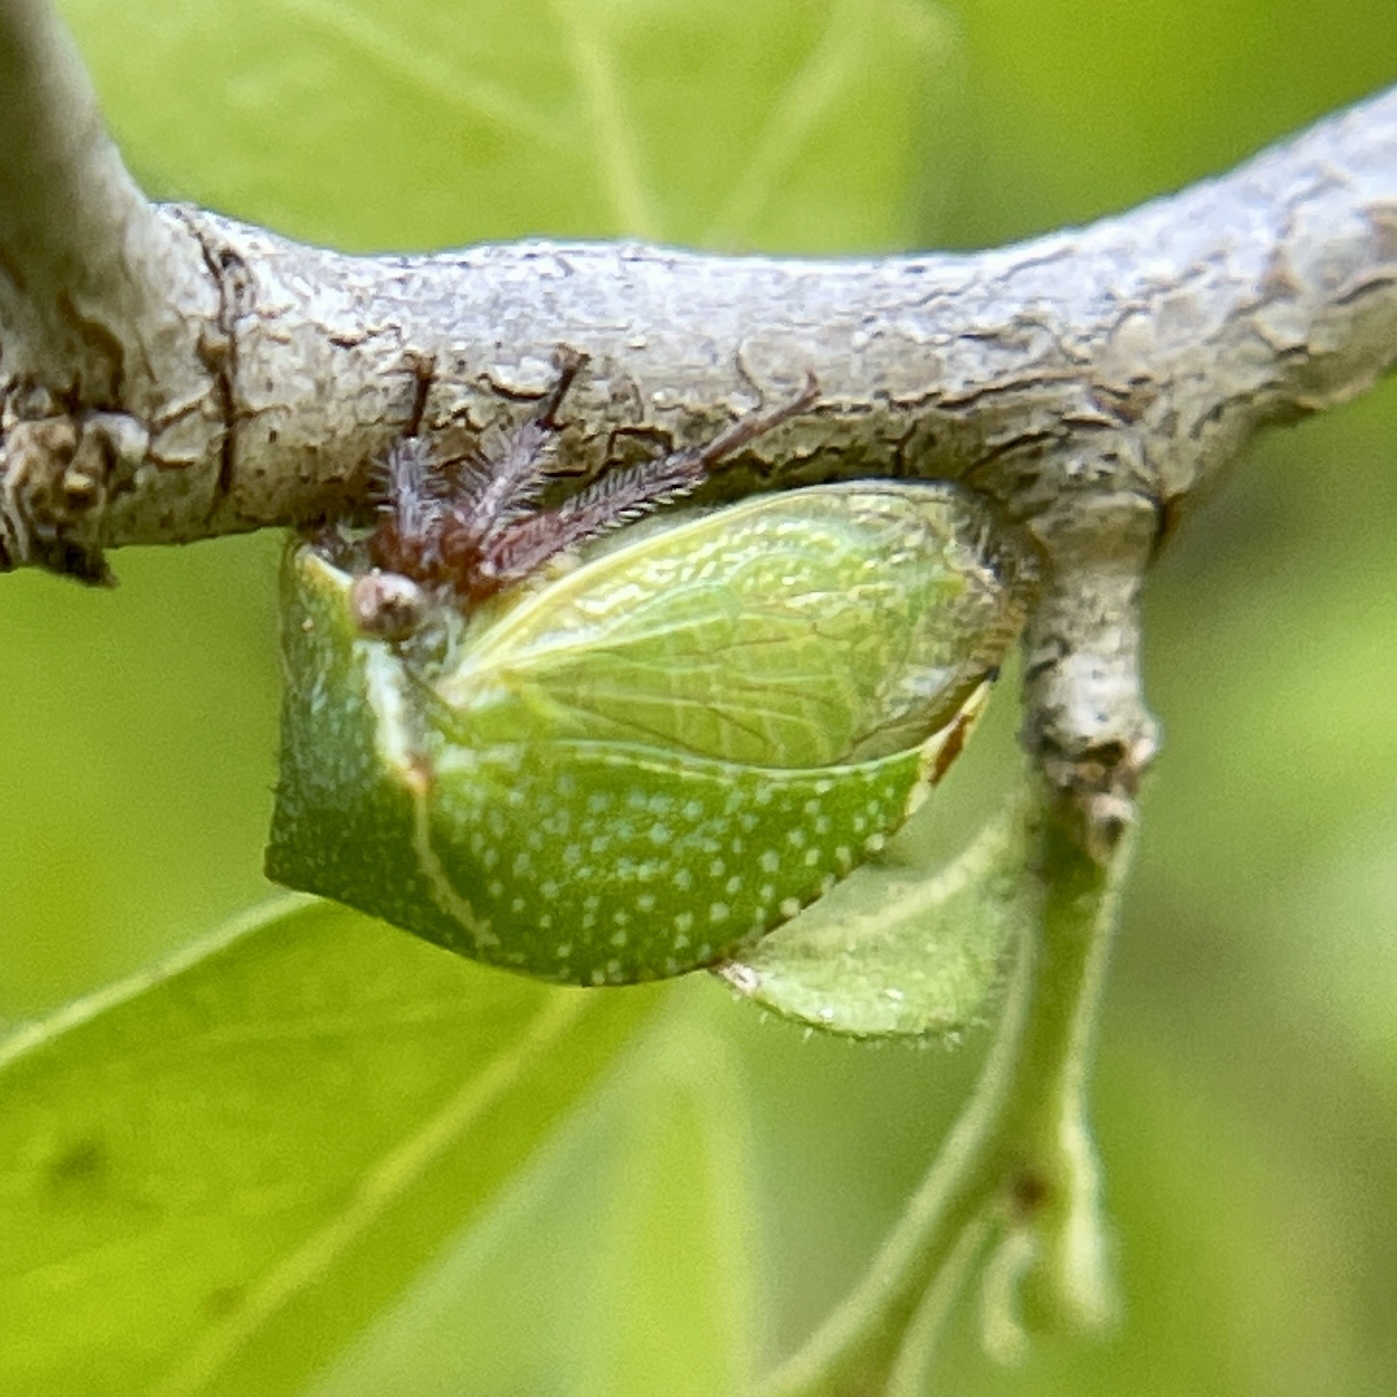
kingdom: Animalia
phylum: Arthropoda
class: Insecta
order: Hemiptera
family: Membracidae
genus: Tortistilus
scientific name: Tortistilus abnorma
